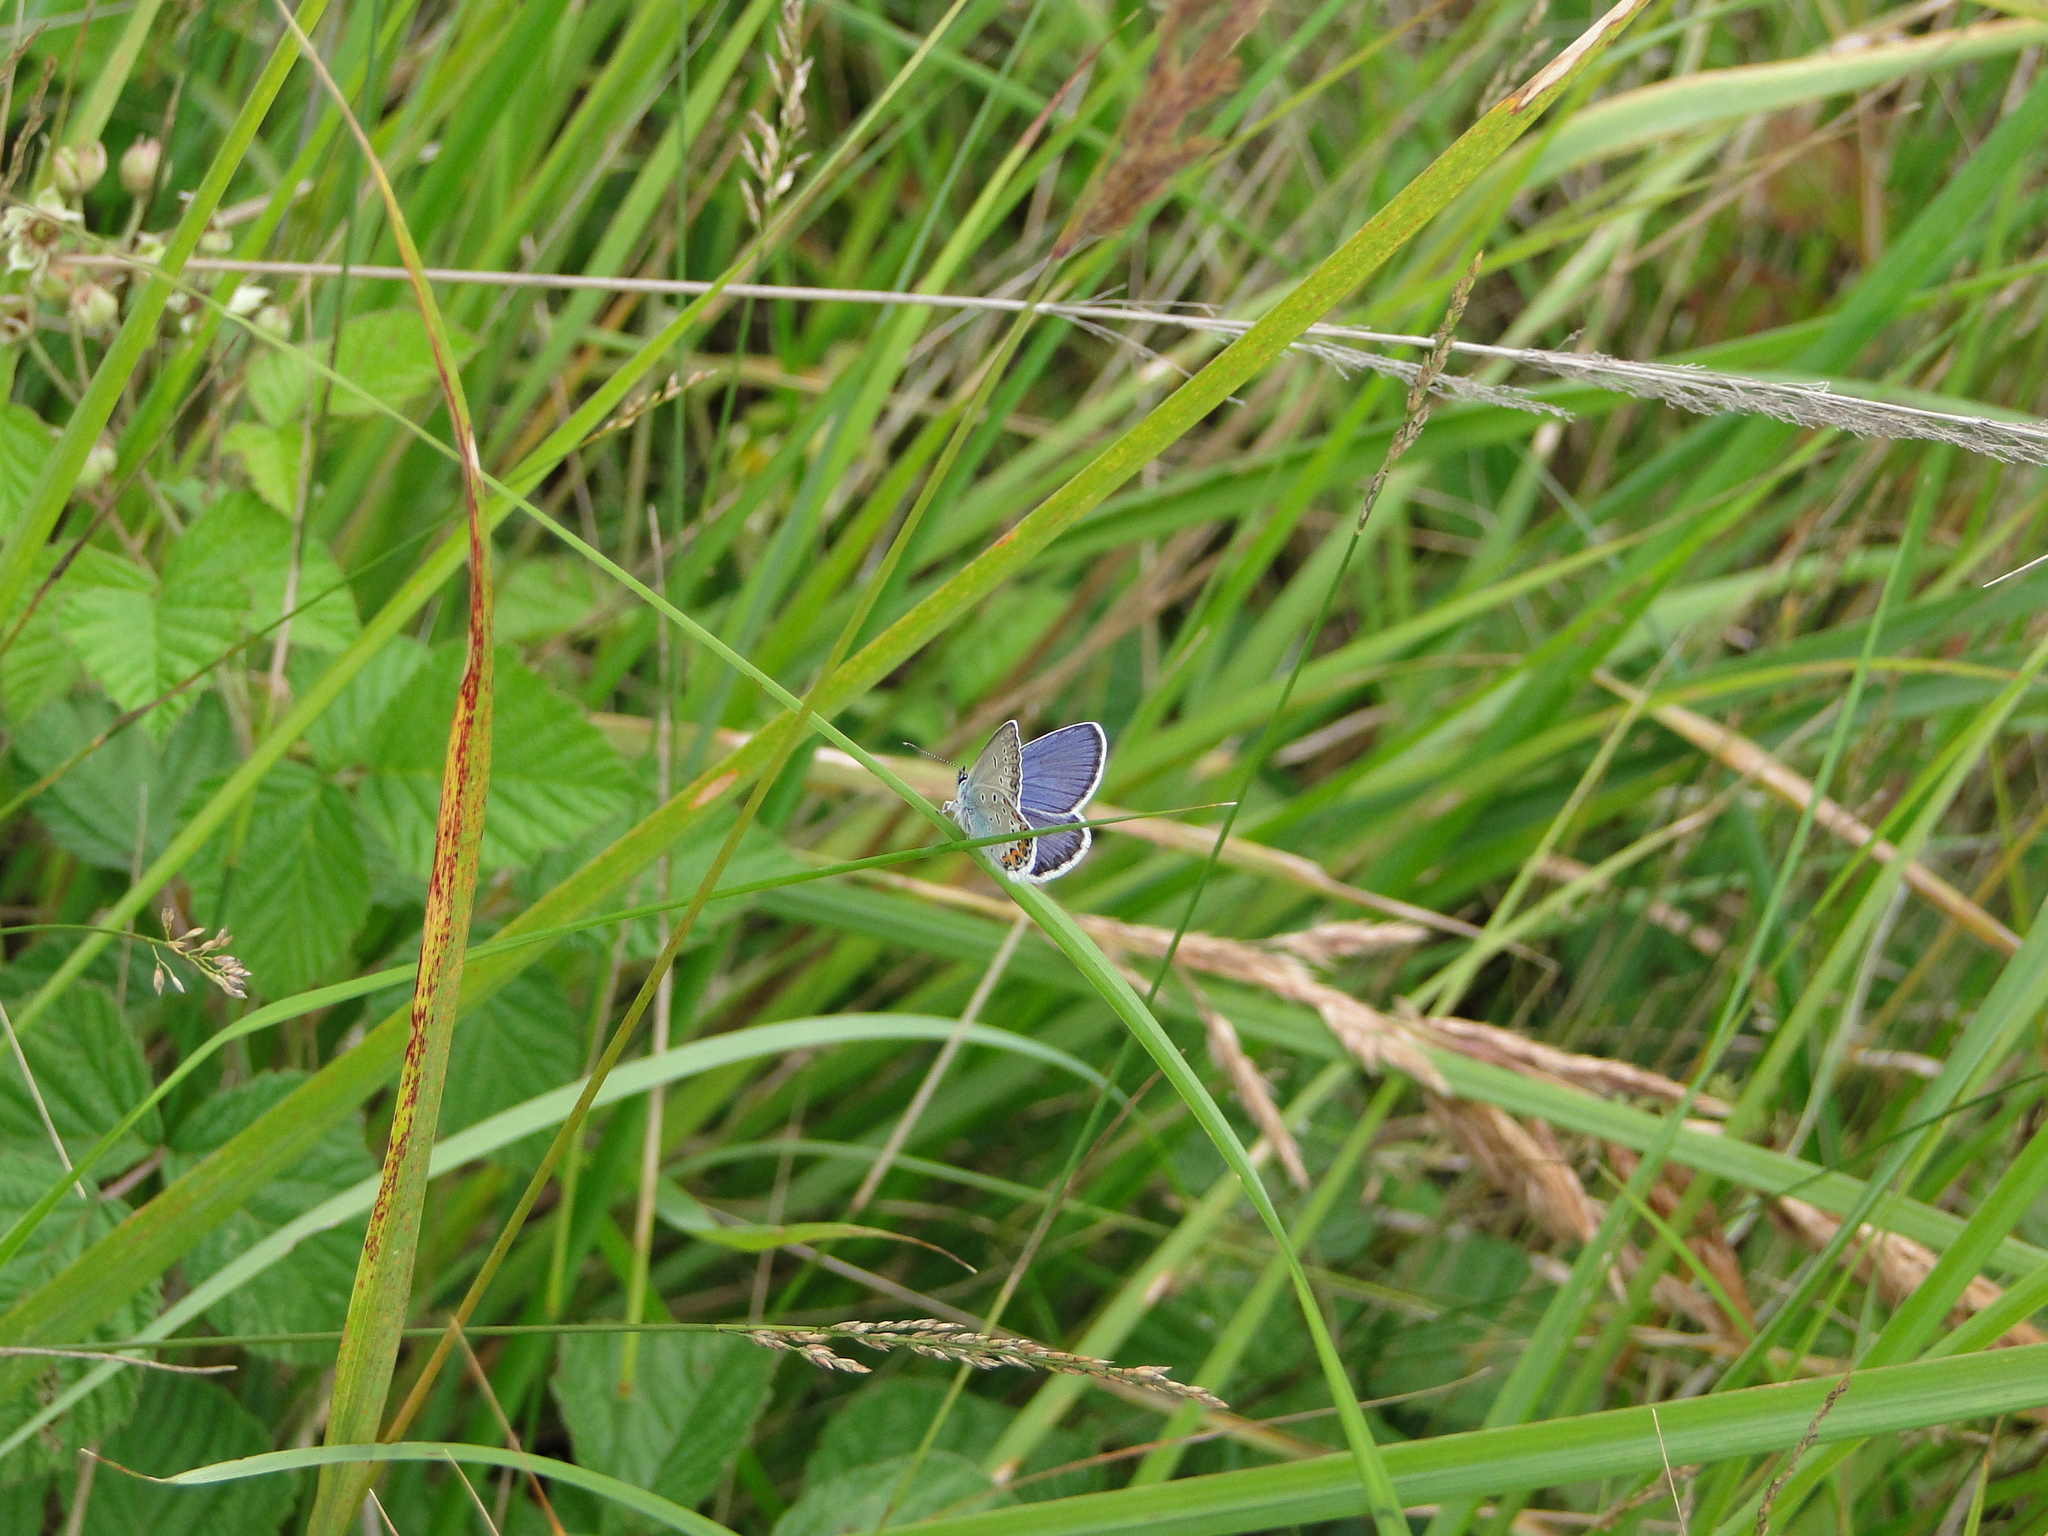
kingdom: Animalia
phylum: Arthropoda
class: Insecta
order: Lepidoptera
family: Lycaenidae
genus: Lycaeides
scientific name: Lycaeides idas
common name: Northern blue
